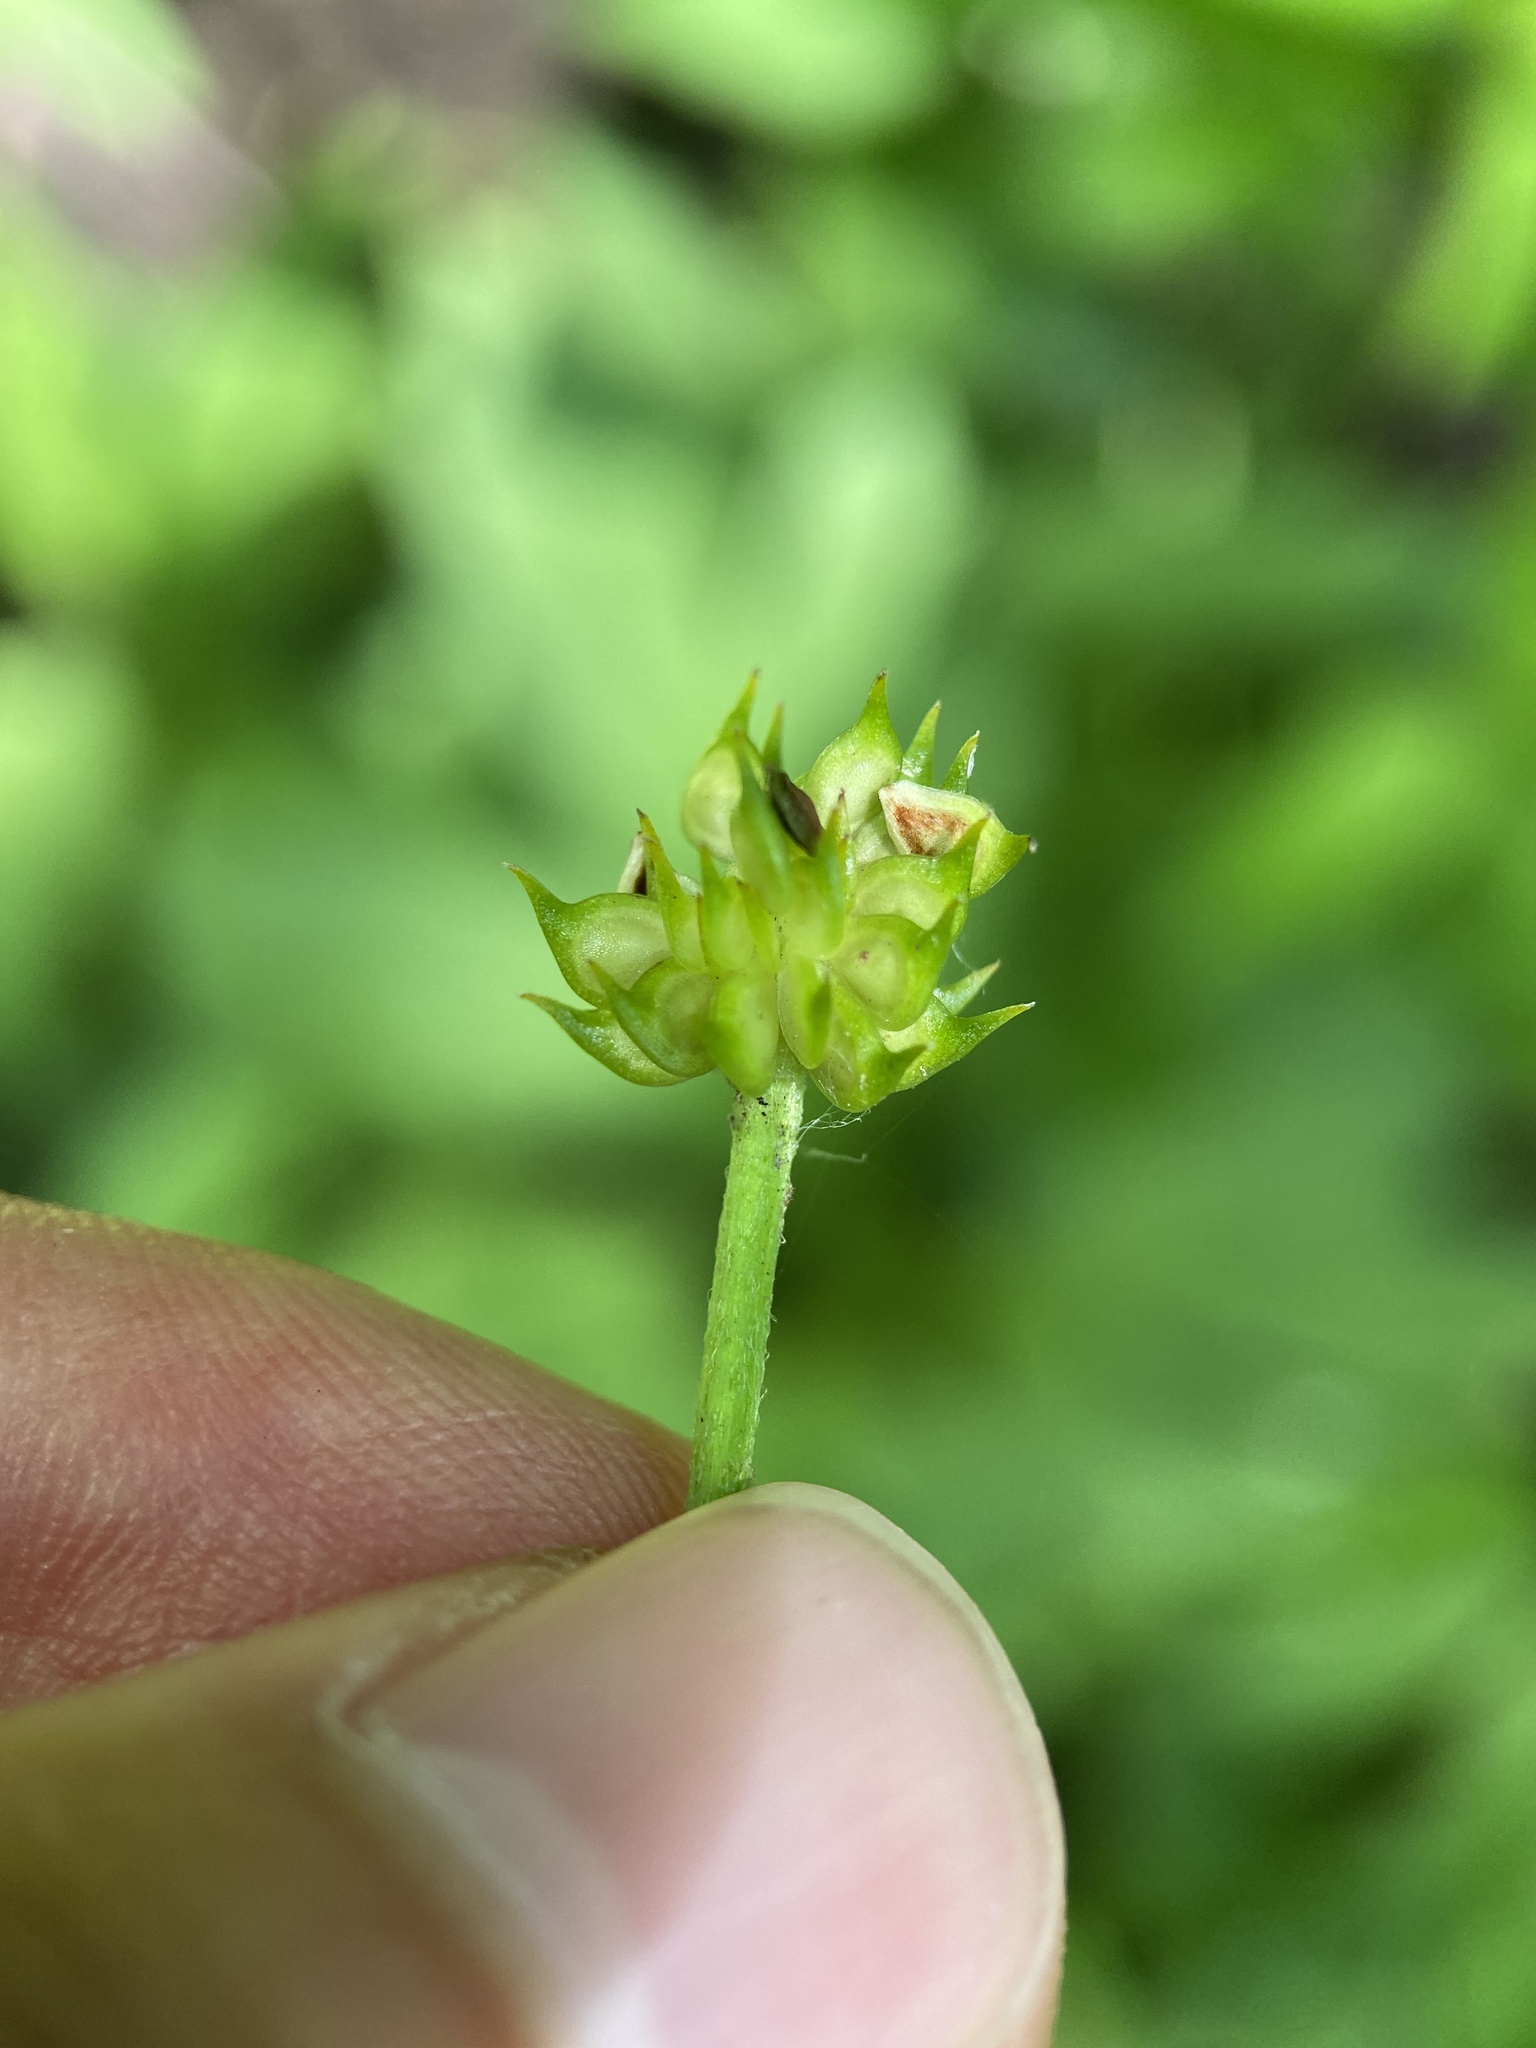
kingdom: Plantae
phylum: Tracheophyta
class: Magnoliopsida
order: Ranunculales
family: Ranunculaceae
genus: Ranunculus
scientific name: Ranunculus hispidus
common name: Bristly buttercup
